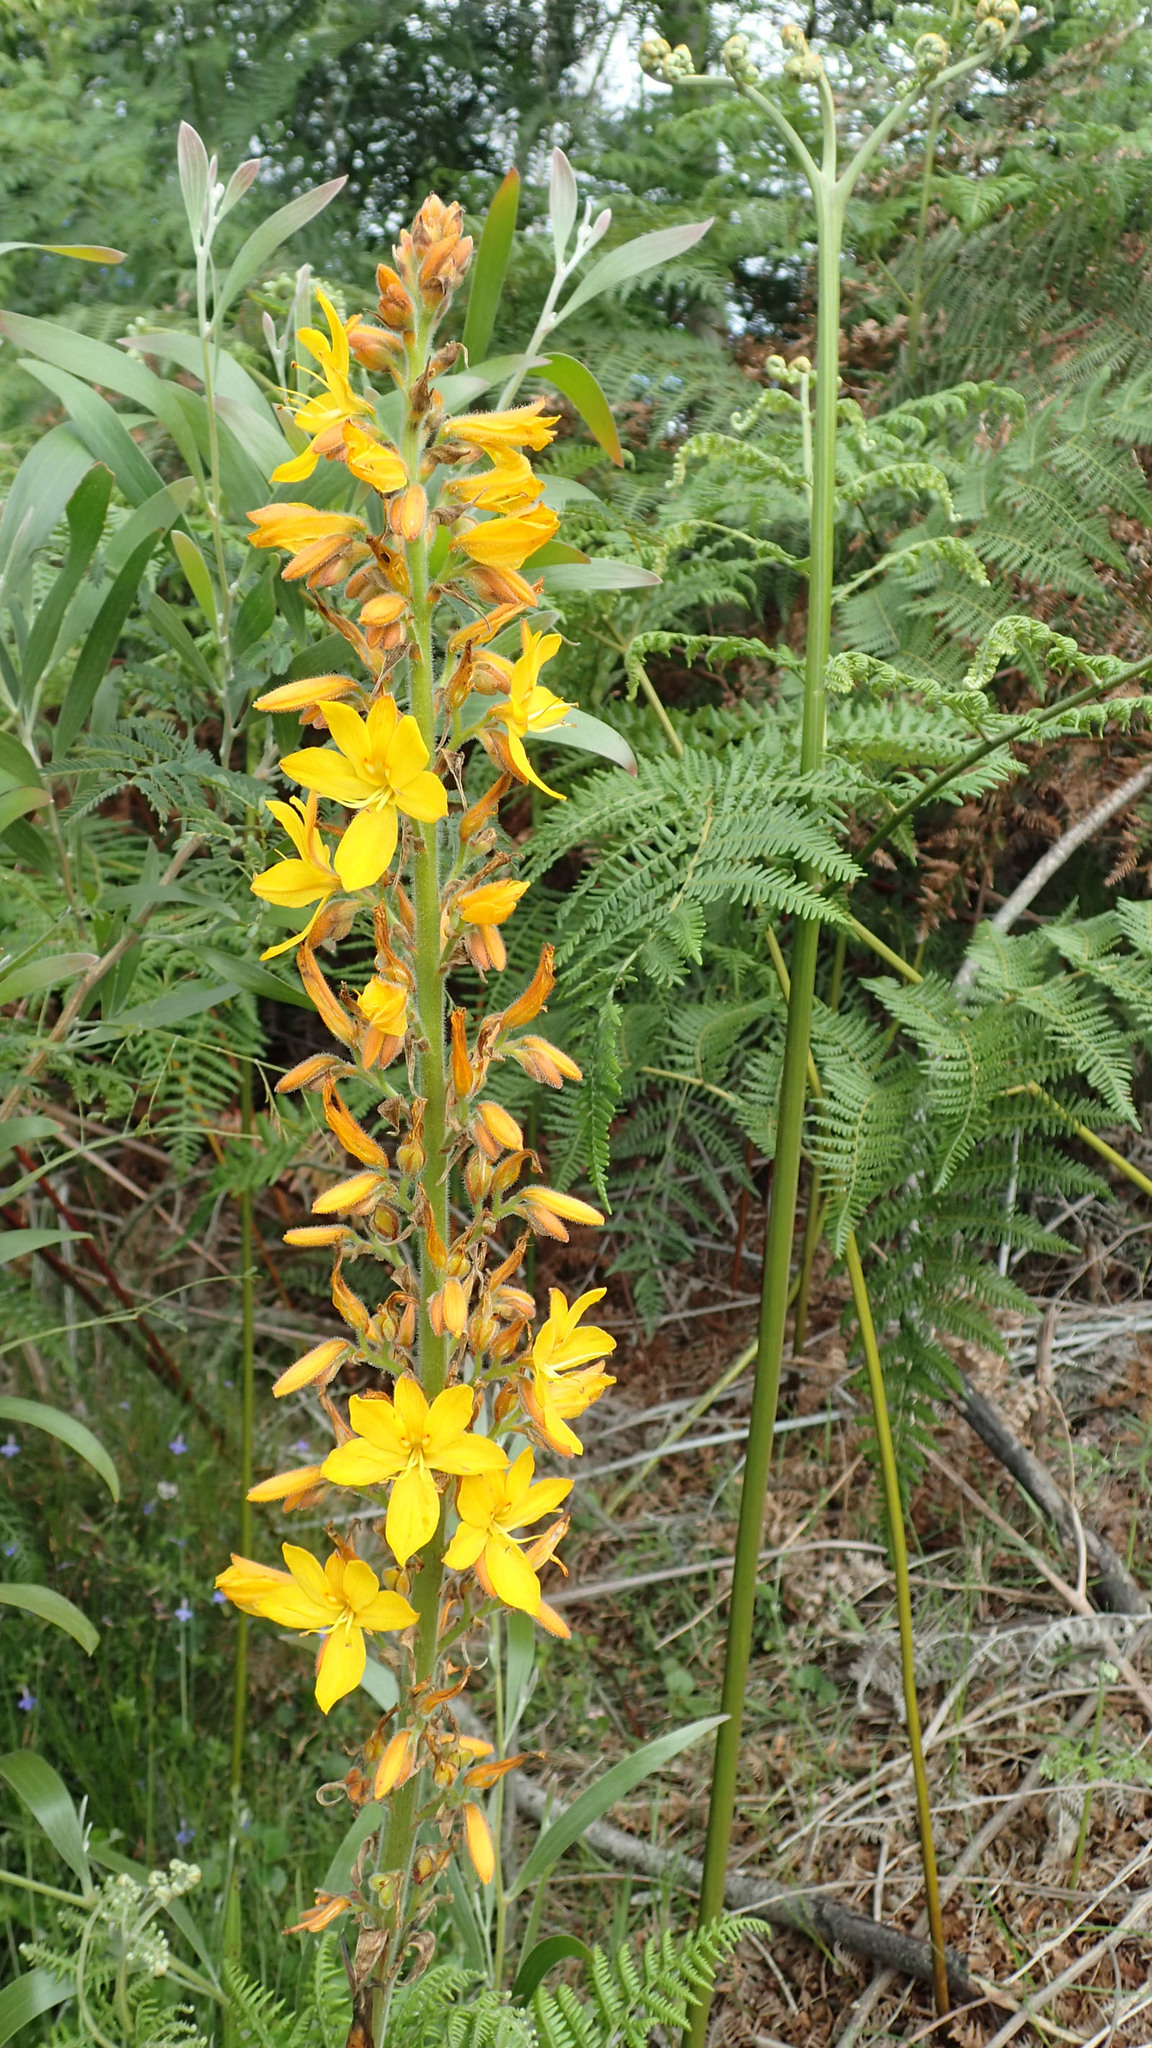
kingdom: Plantae
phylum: Tracheophyta
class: Liliopsida
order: Commelinales
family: Haemodoraceae
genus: Wachendorfia
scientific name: Wachendorfia thyrsiflora
